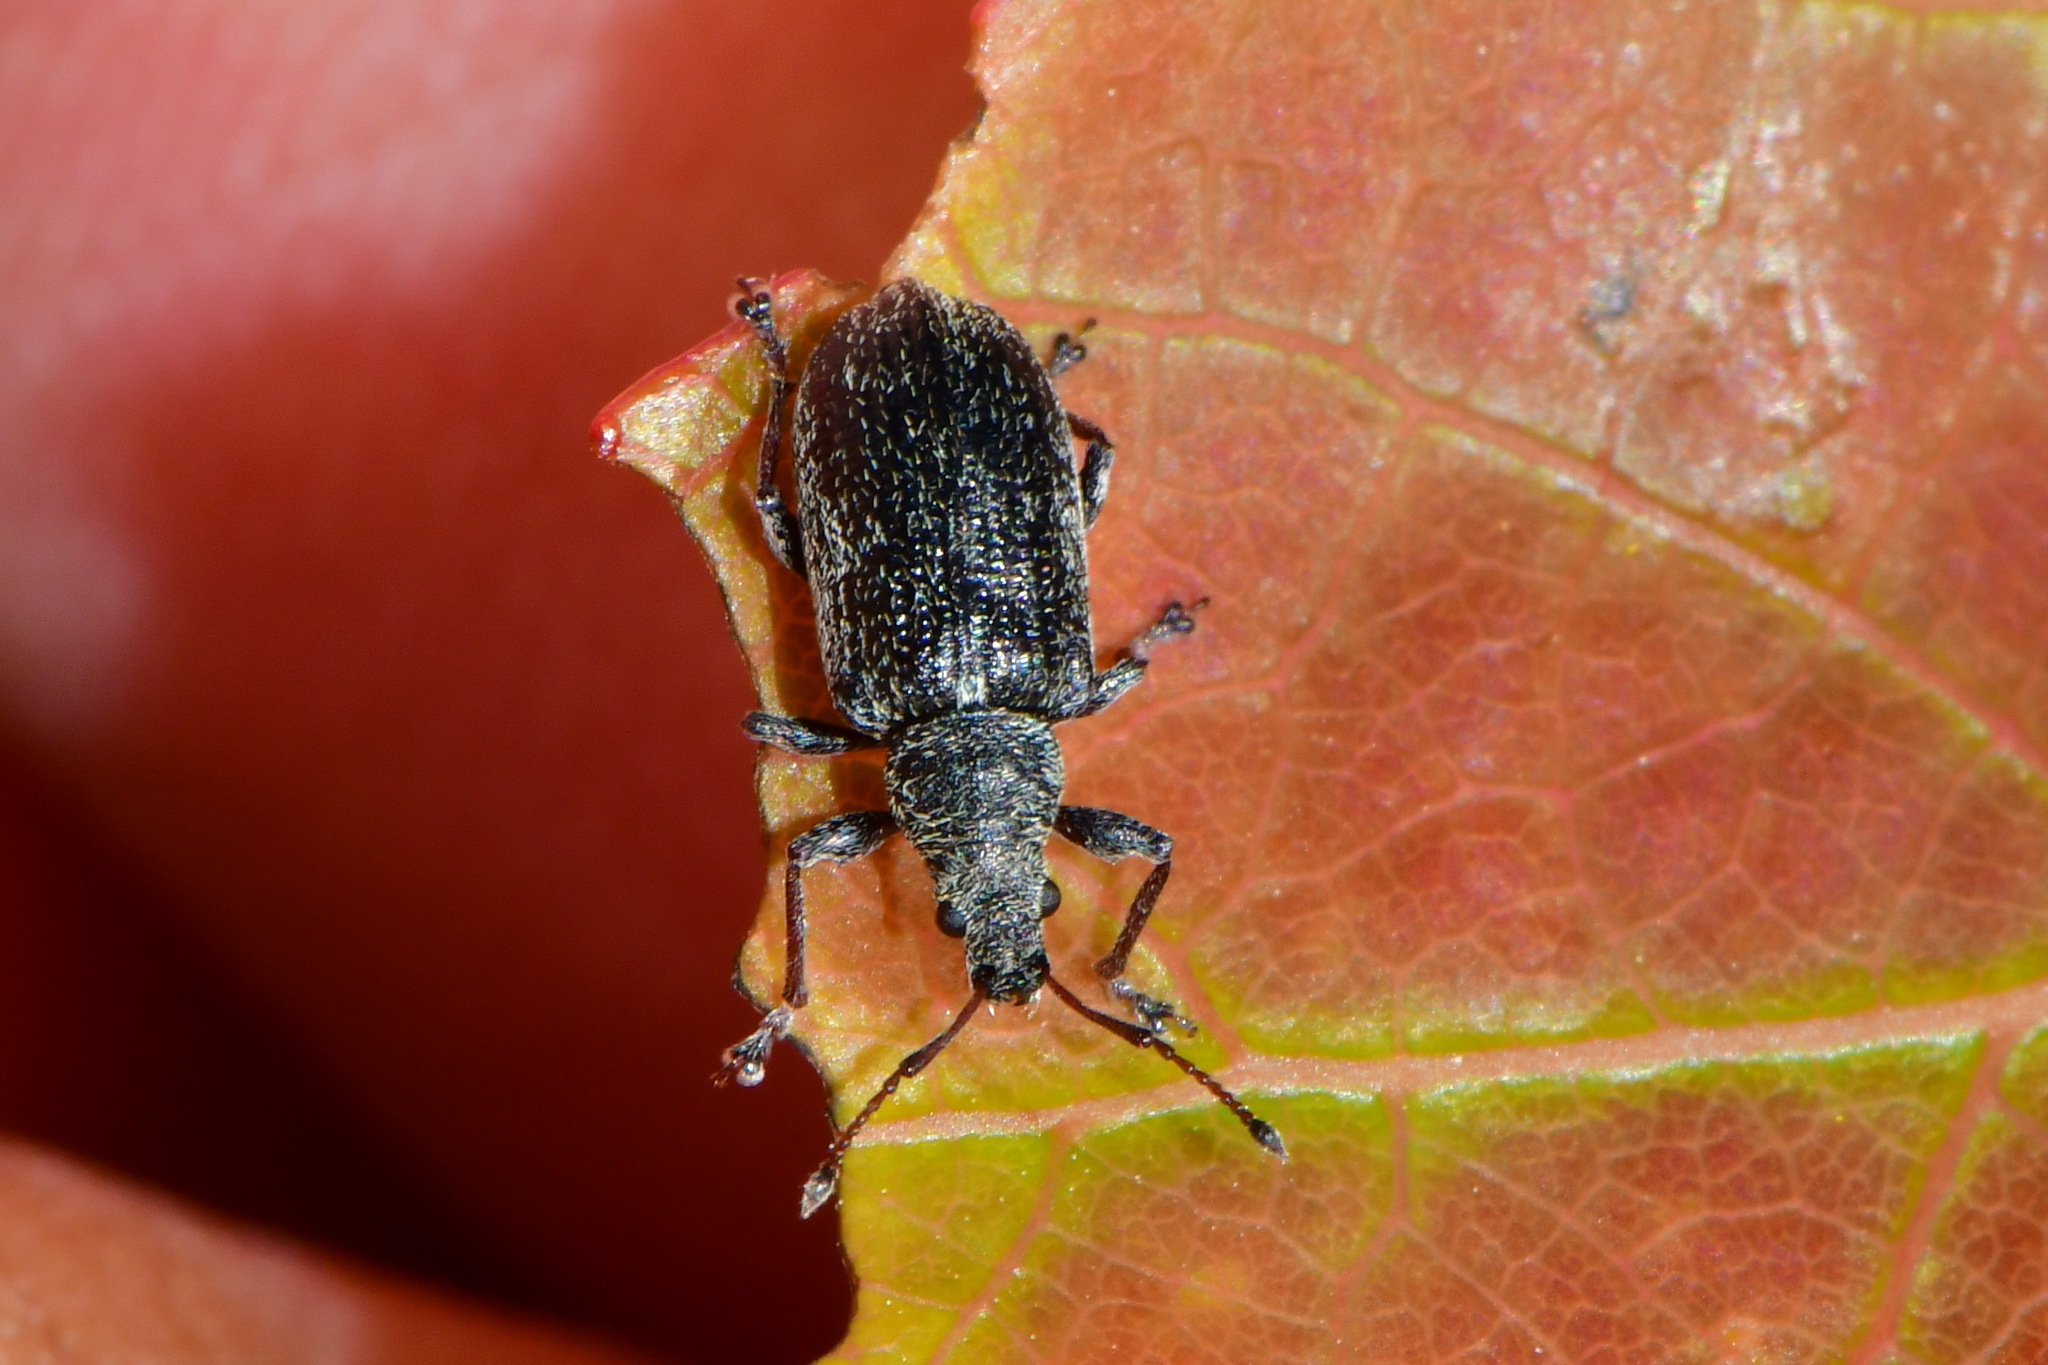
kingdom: Animalia
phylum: Arthropoda
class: Insecta
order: Coleoptera
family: Curculionidae
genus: Phyllobius
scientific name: Phyllobius pyri
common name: Common leaf weevil
